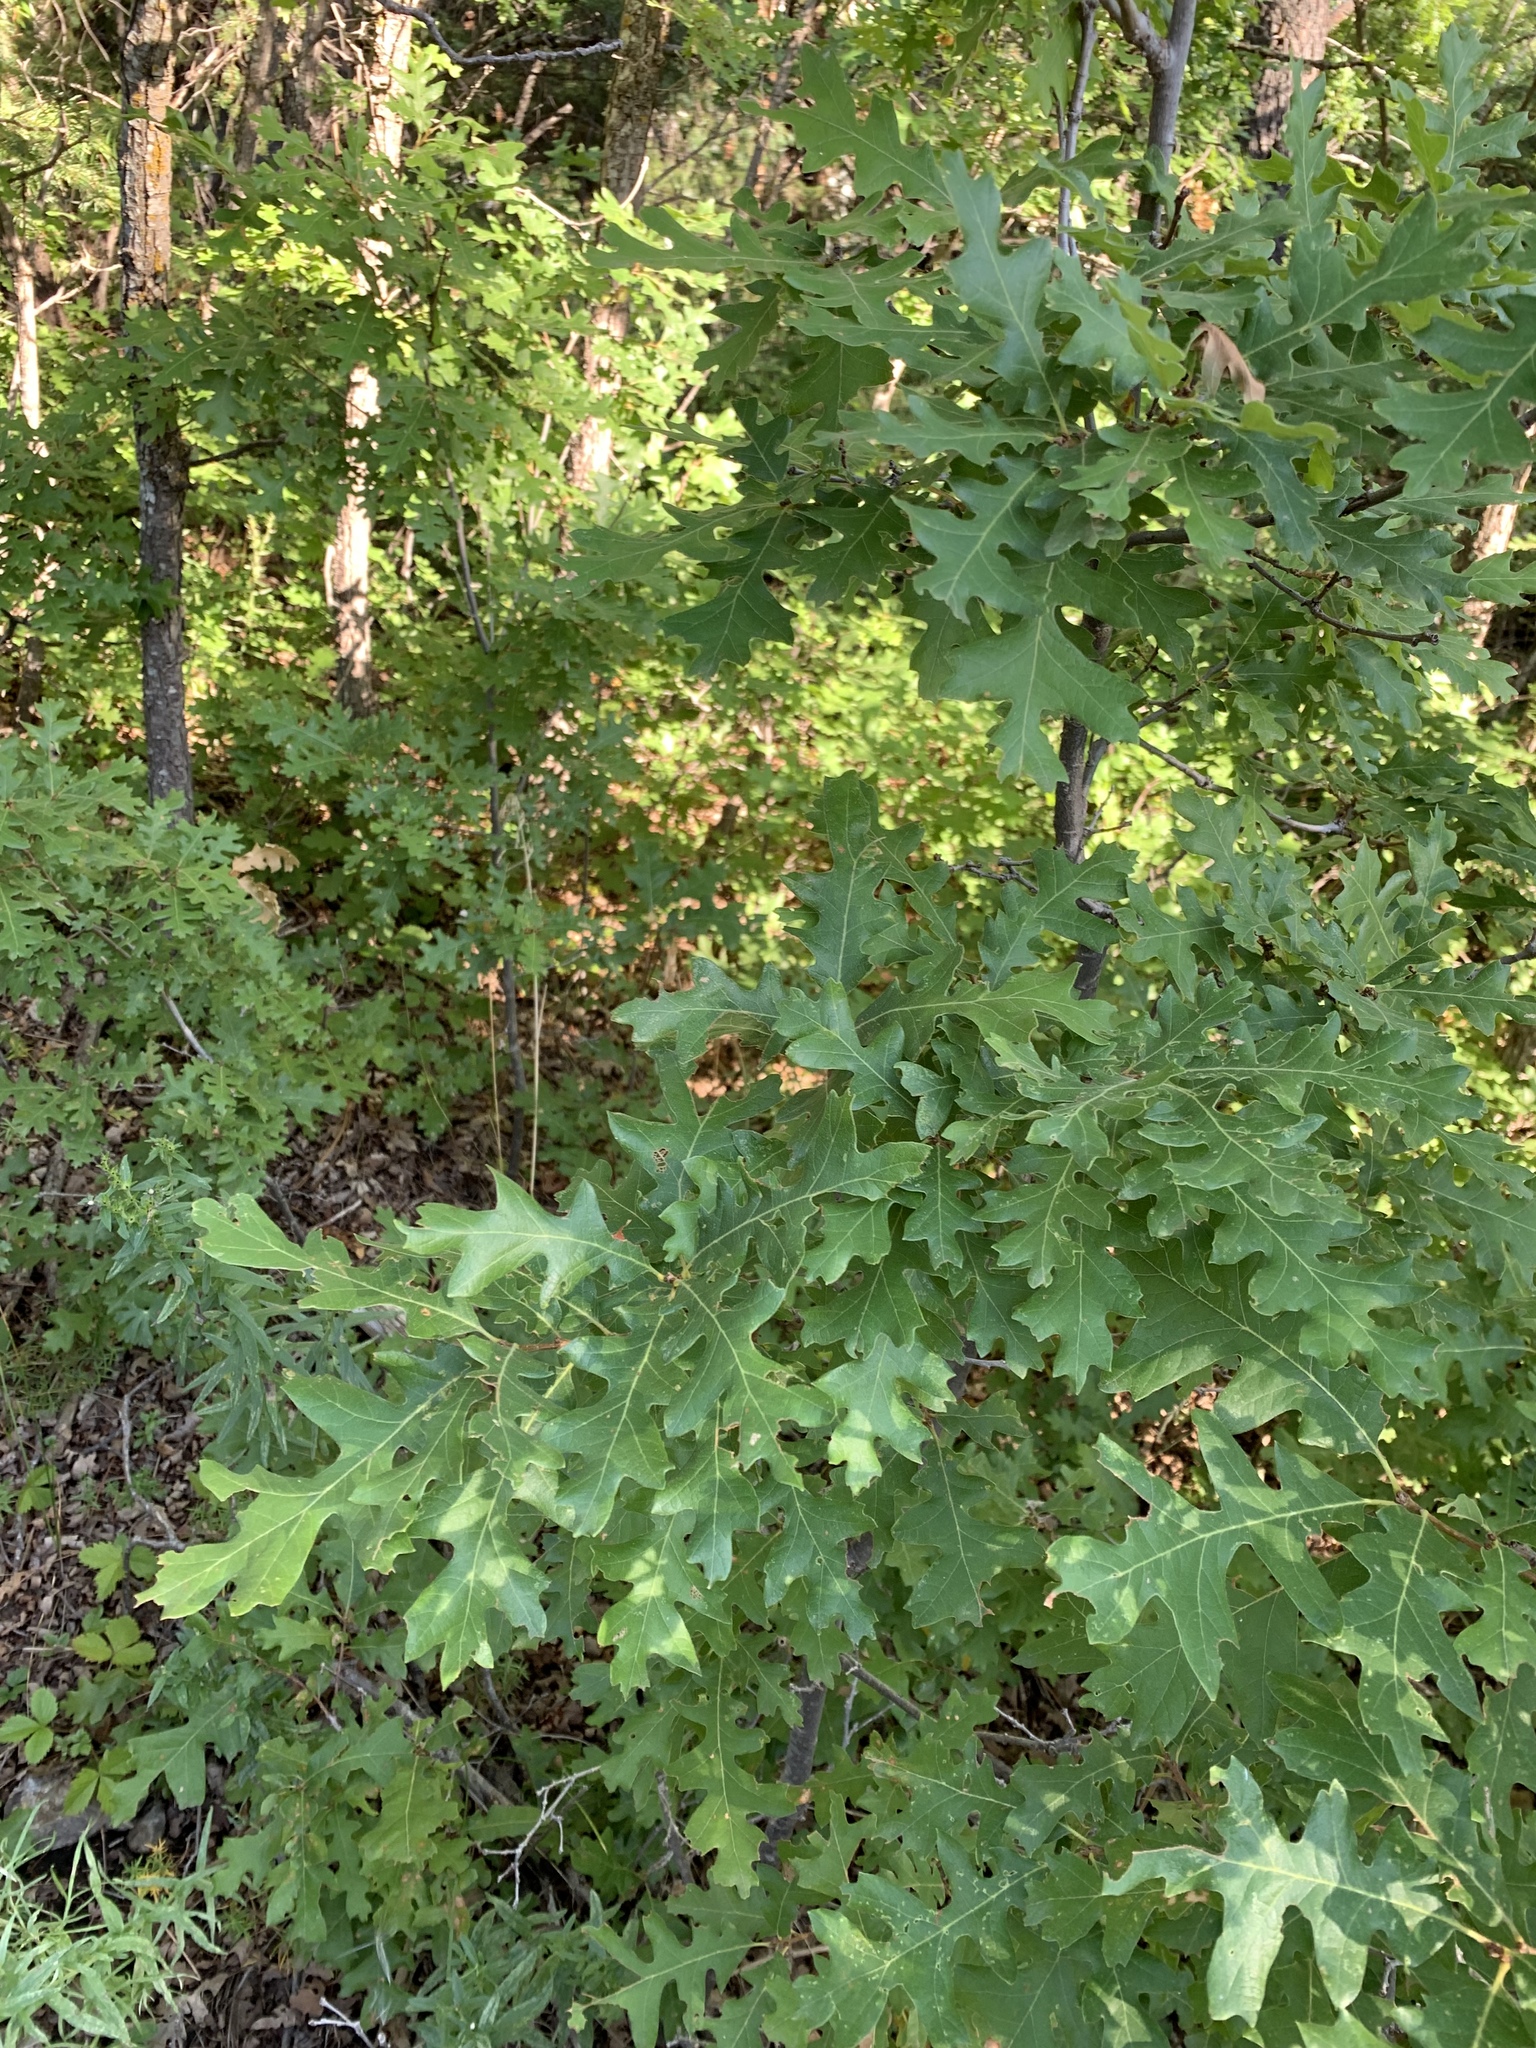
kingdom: Plantae
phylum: Tracheophyta
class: Magnoliopsida
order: Fagales
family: Fagaceae
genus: Quercus
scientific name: Quercus gambelii
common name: Gambel oak
